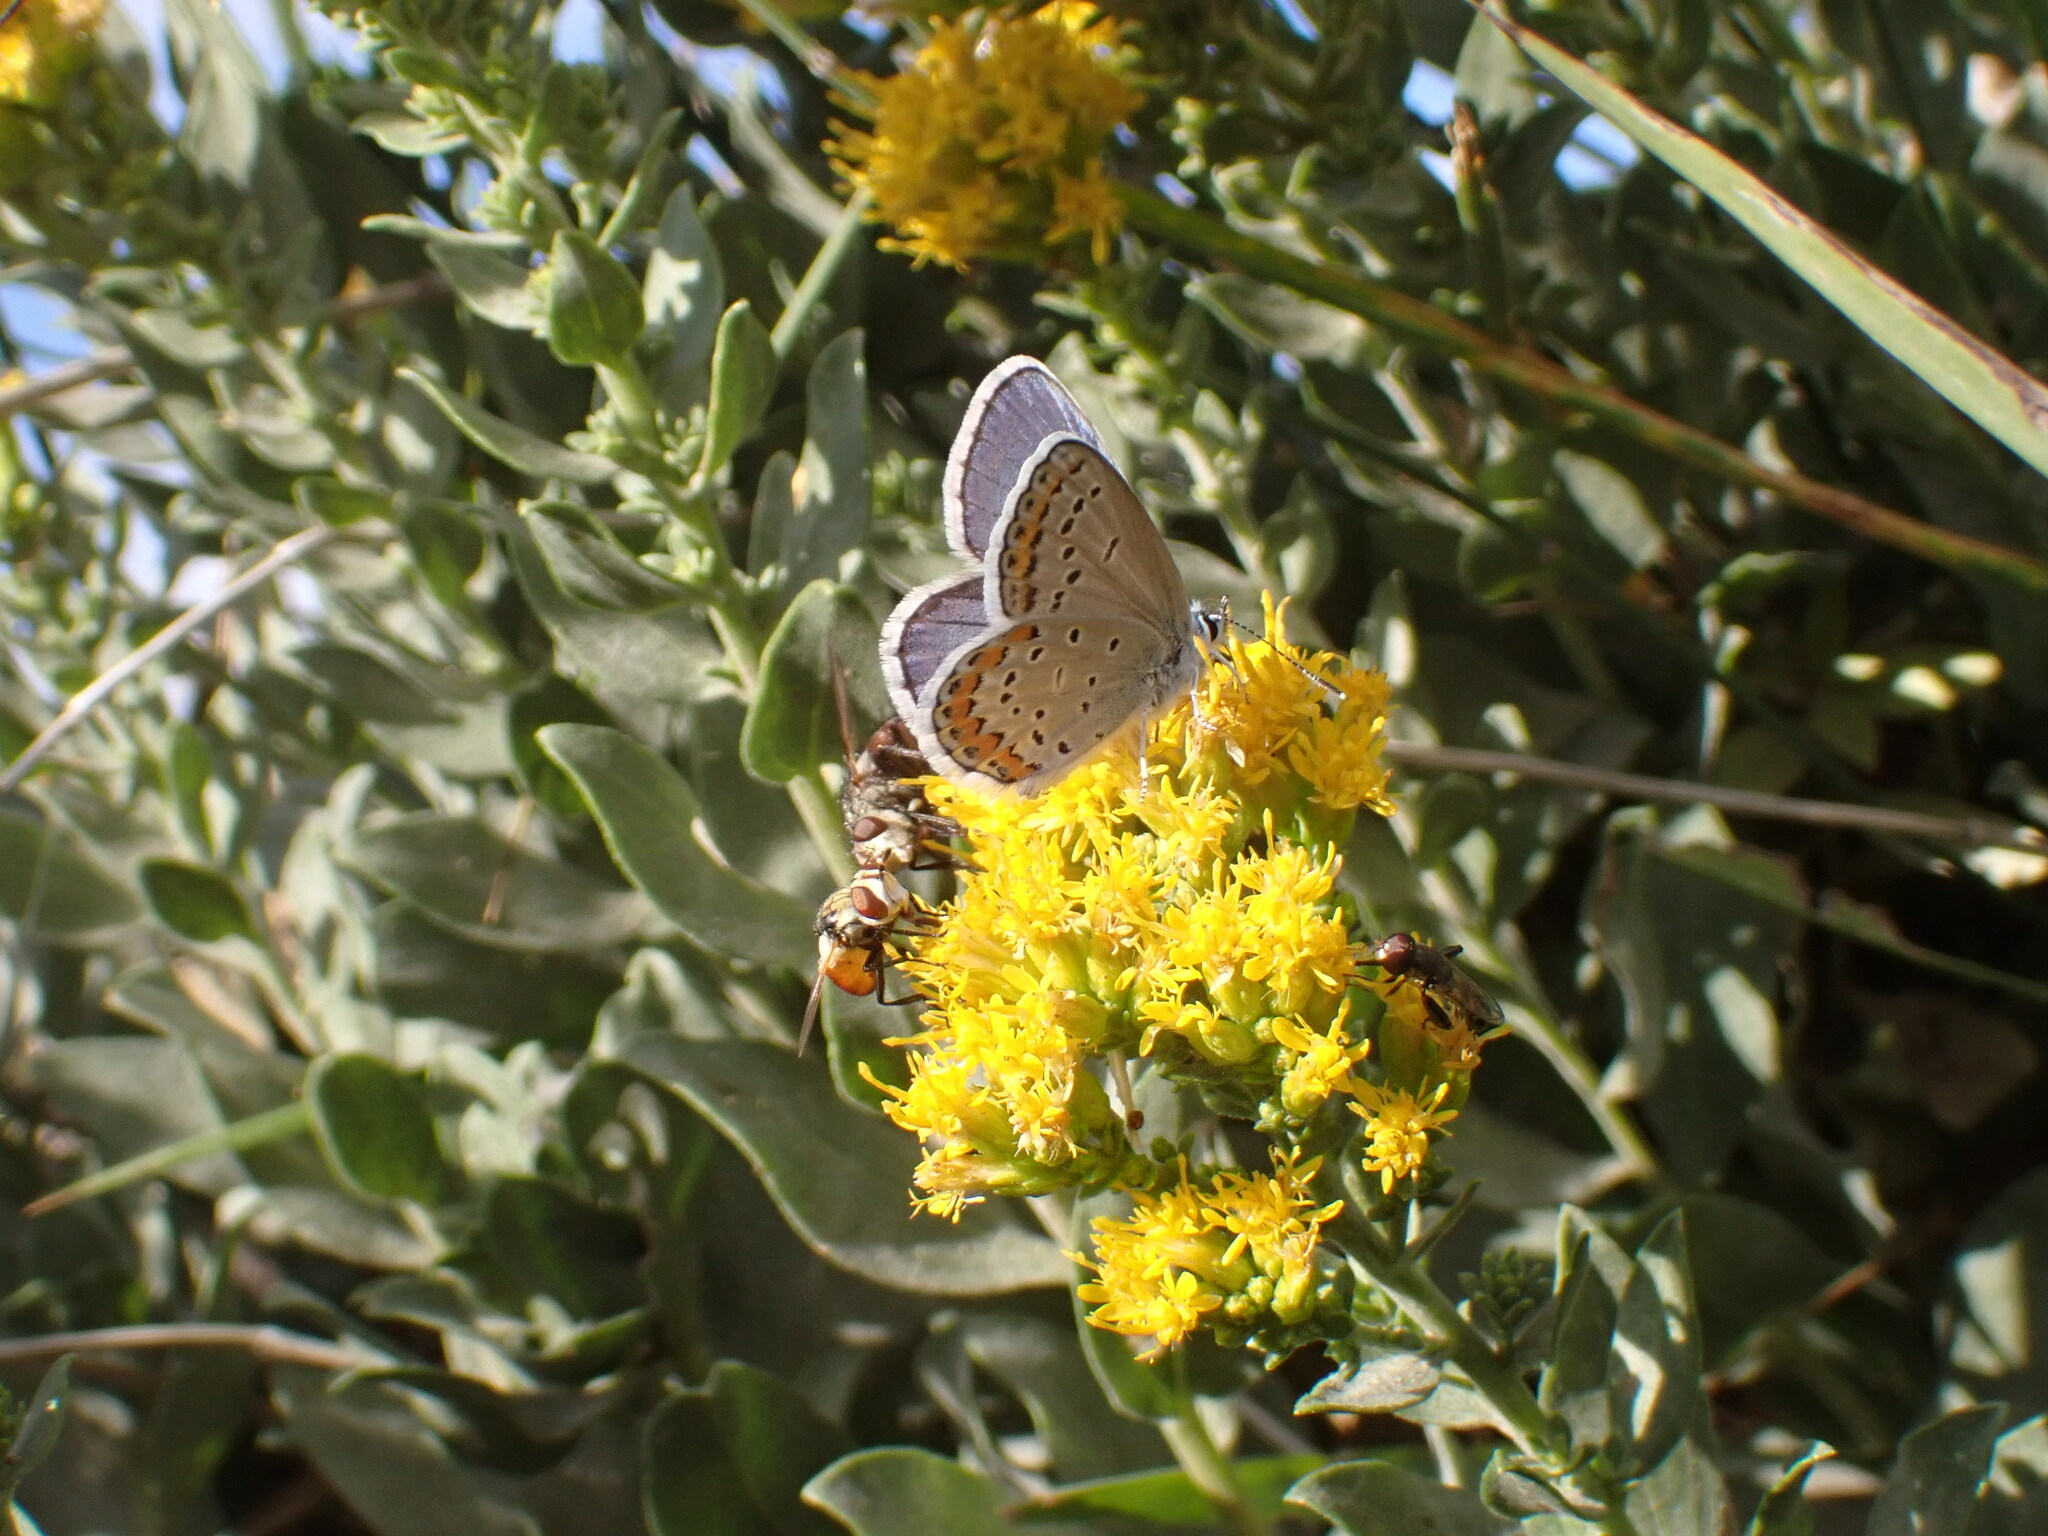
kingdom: Animalia
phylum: Arthropoda
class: Insecta
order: Lepidoptera
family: Lycaenidae
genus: Lycaeides
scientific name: Lycaeides melissa
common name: Melissa blue
